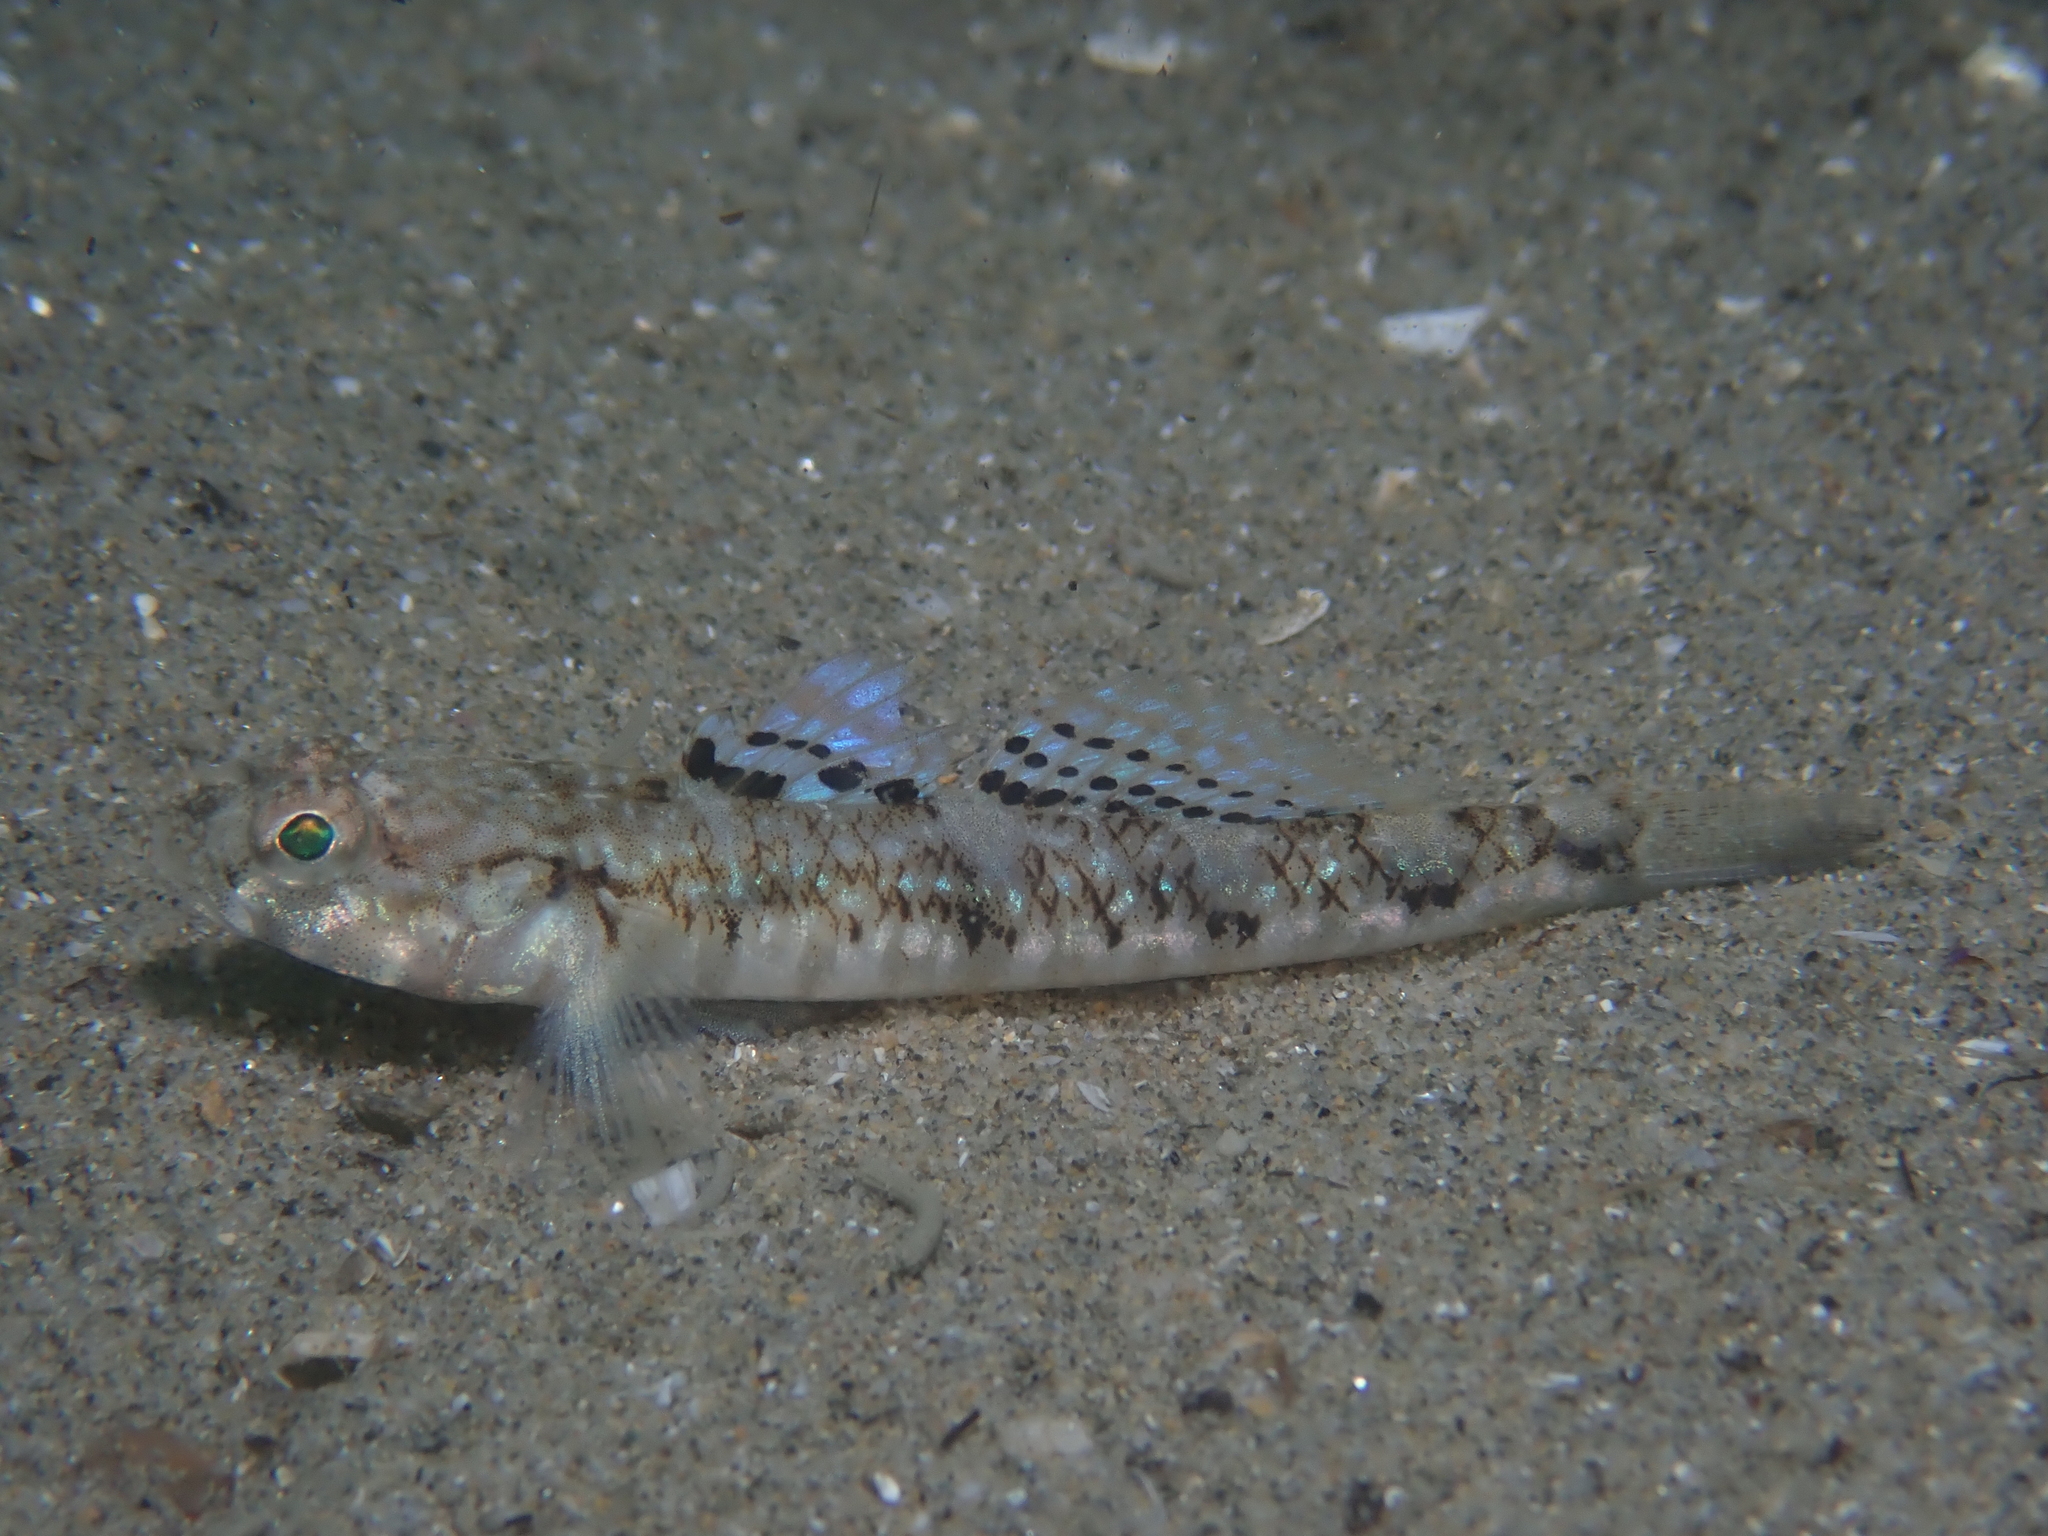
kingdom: Animalia
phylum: Chordata
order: Perciformes
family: Gobiidae
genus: Pomatoschistus
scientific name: Pomatoschistus pictus
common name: Painted goby
